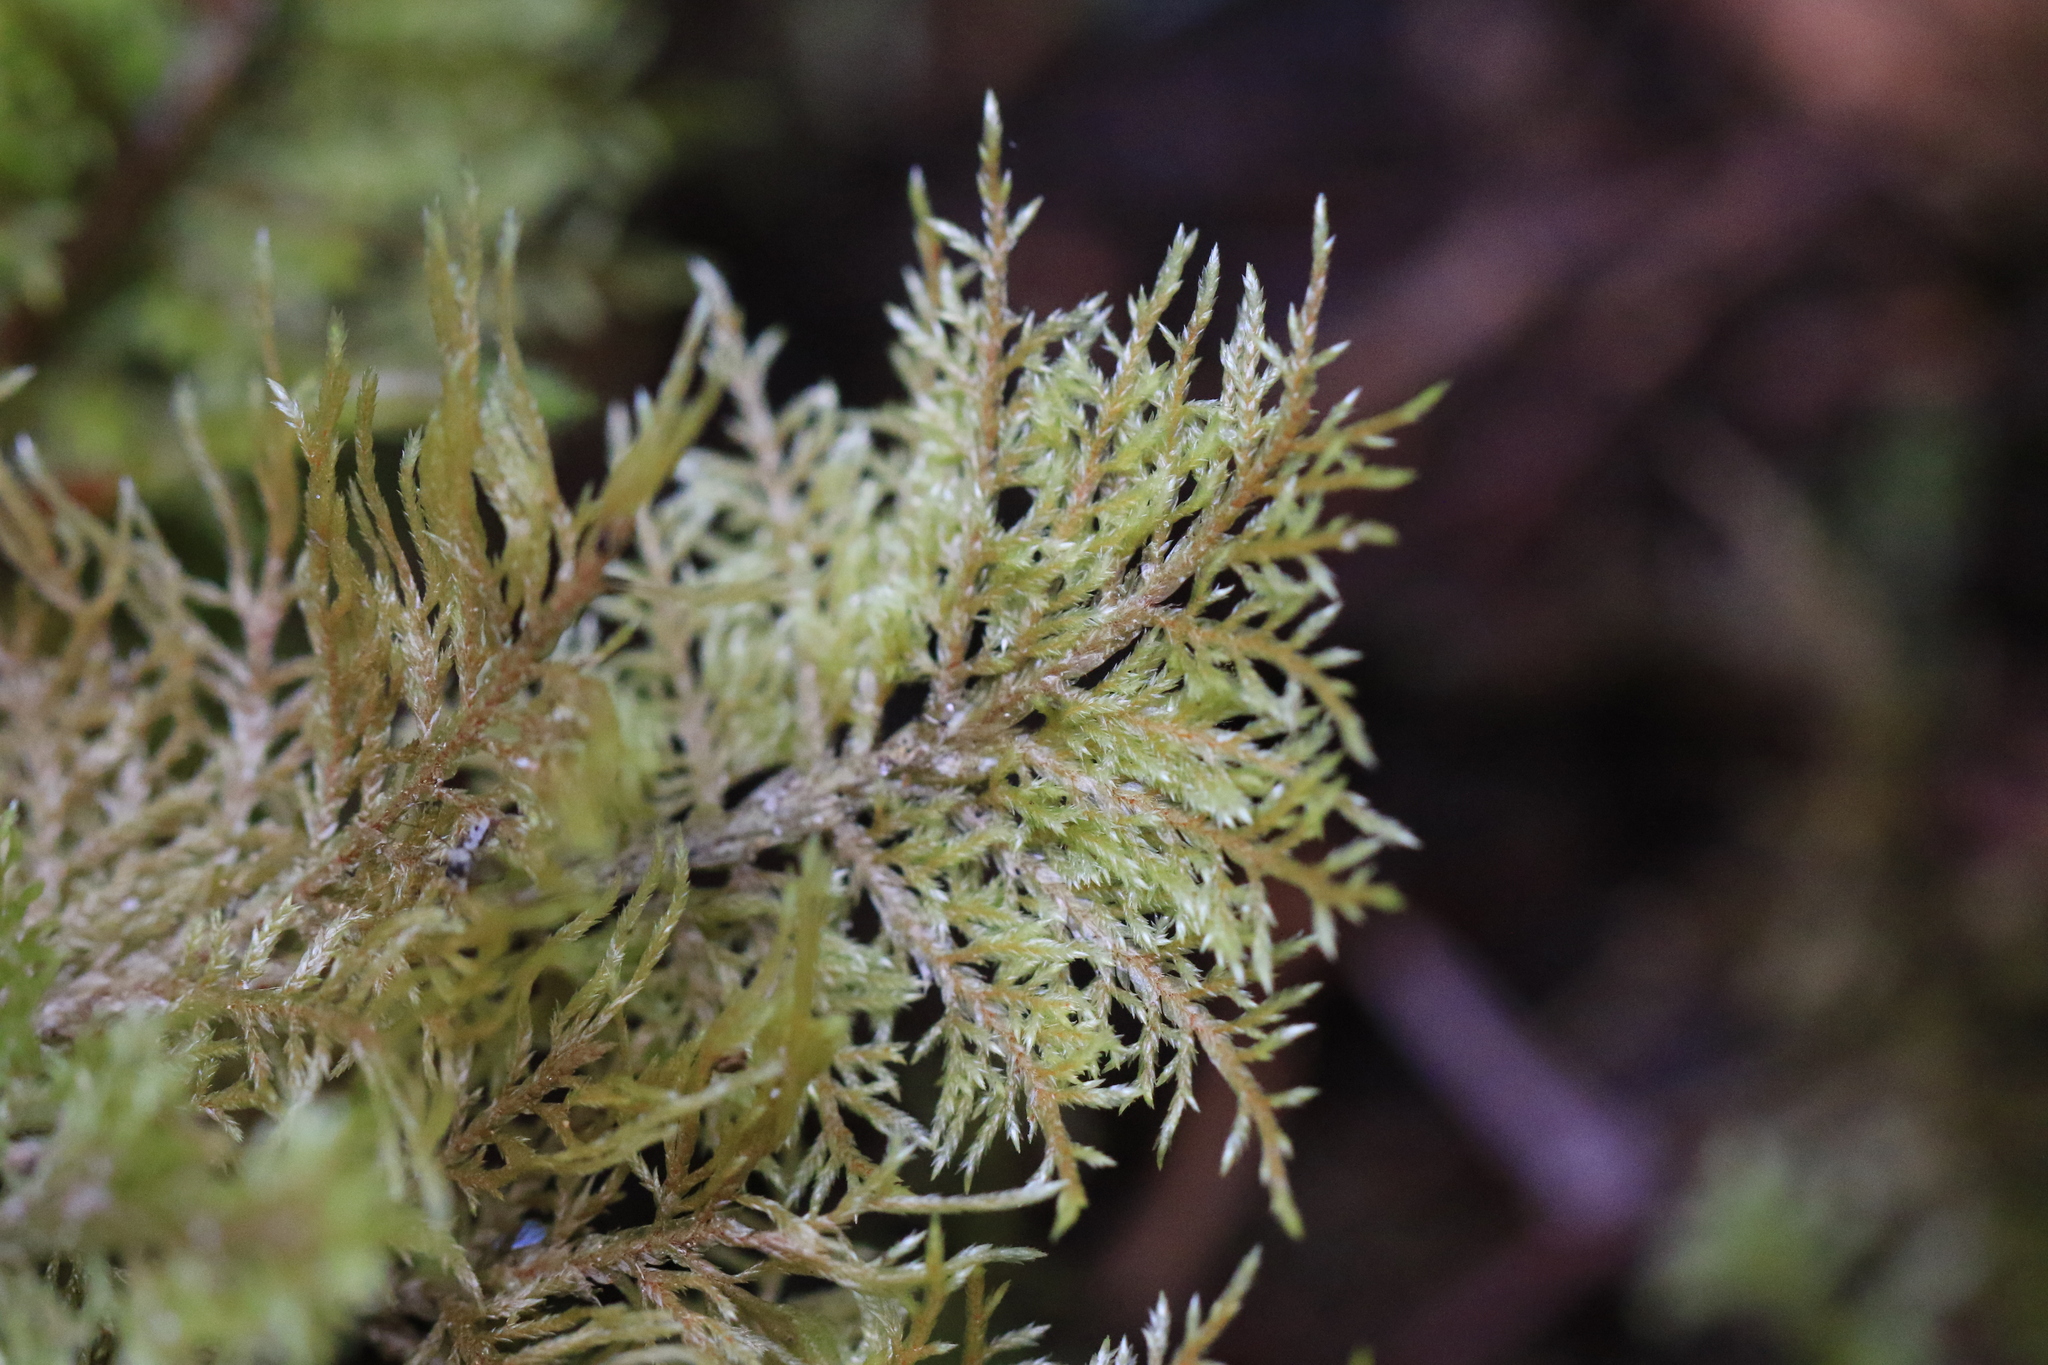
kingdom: Plantae
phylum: Bryophyta
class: Bryopsida
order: Hypnales
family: Hylocomiaceae
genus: Hylocomium
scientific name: Hylocomium splendens
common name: Stairstep moss
